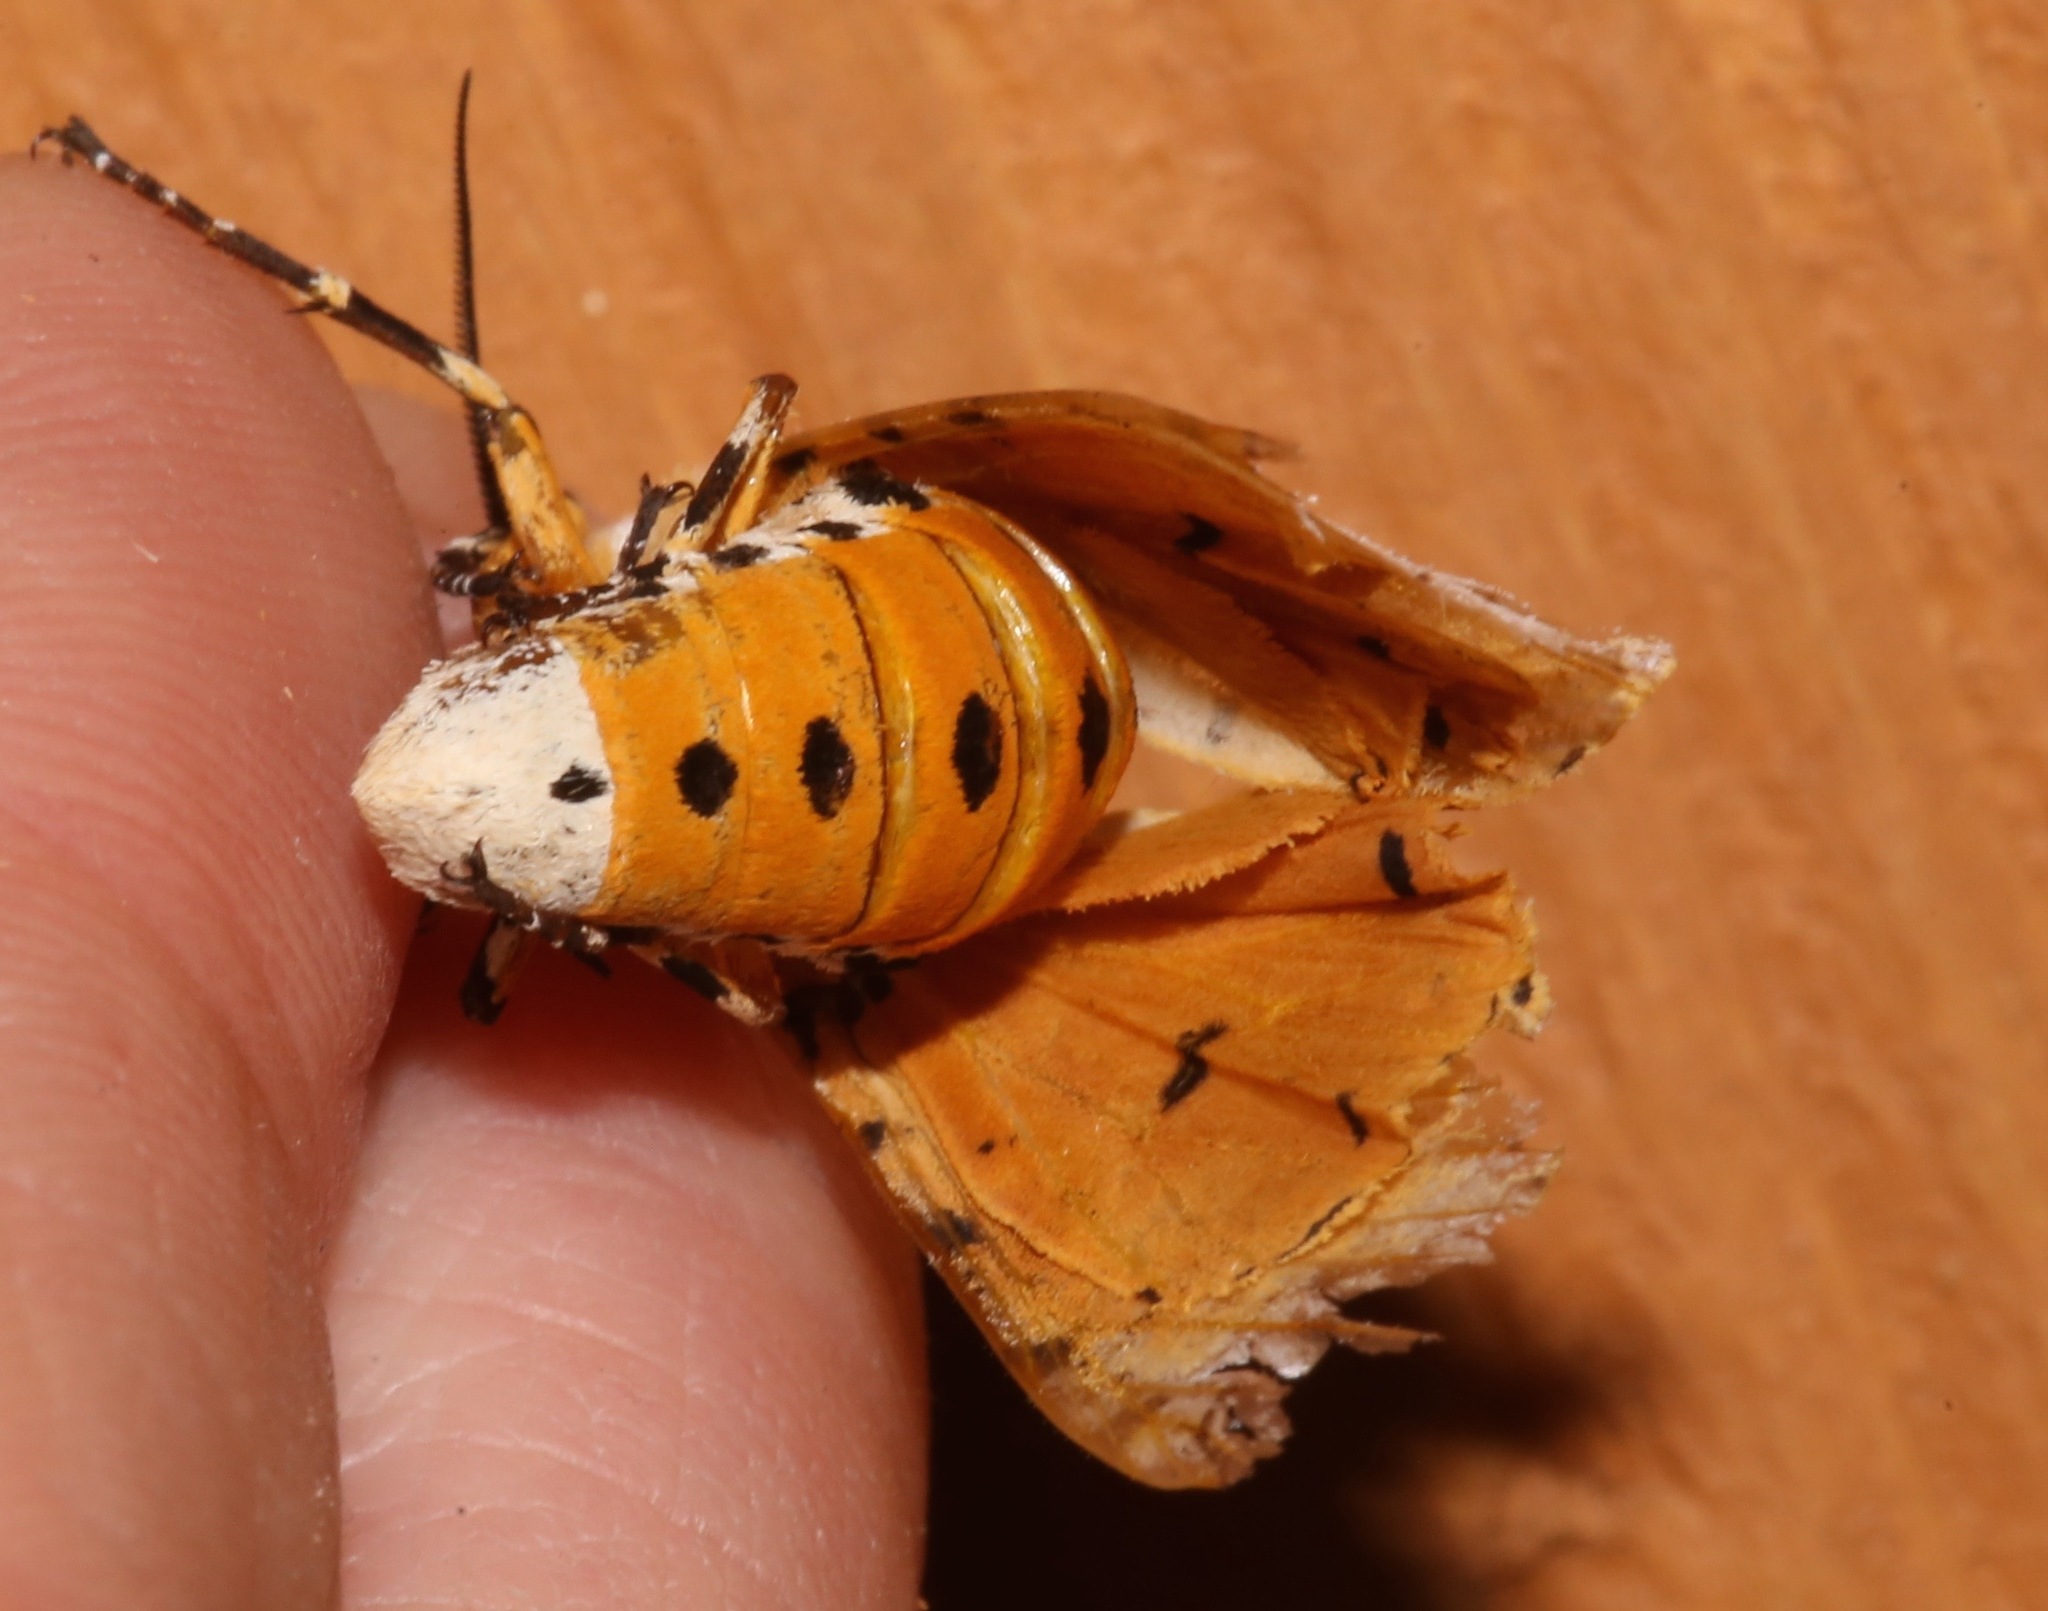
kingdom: Animalia
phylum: Arthropoda
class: Insecta
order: Lepidoptera
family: Erebidae
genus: Estigmene
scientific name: Estigmene acrea
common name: Salt marsh moth
